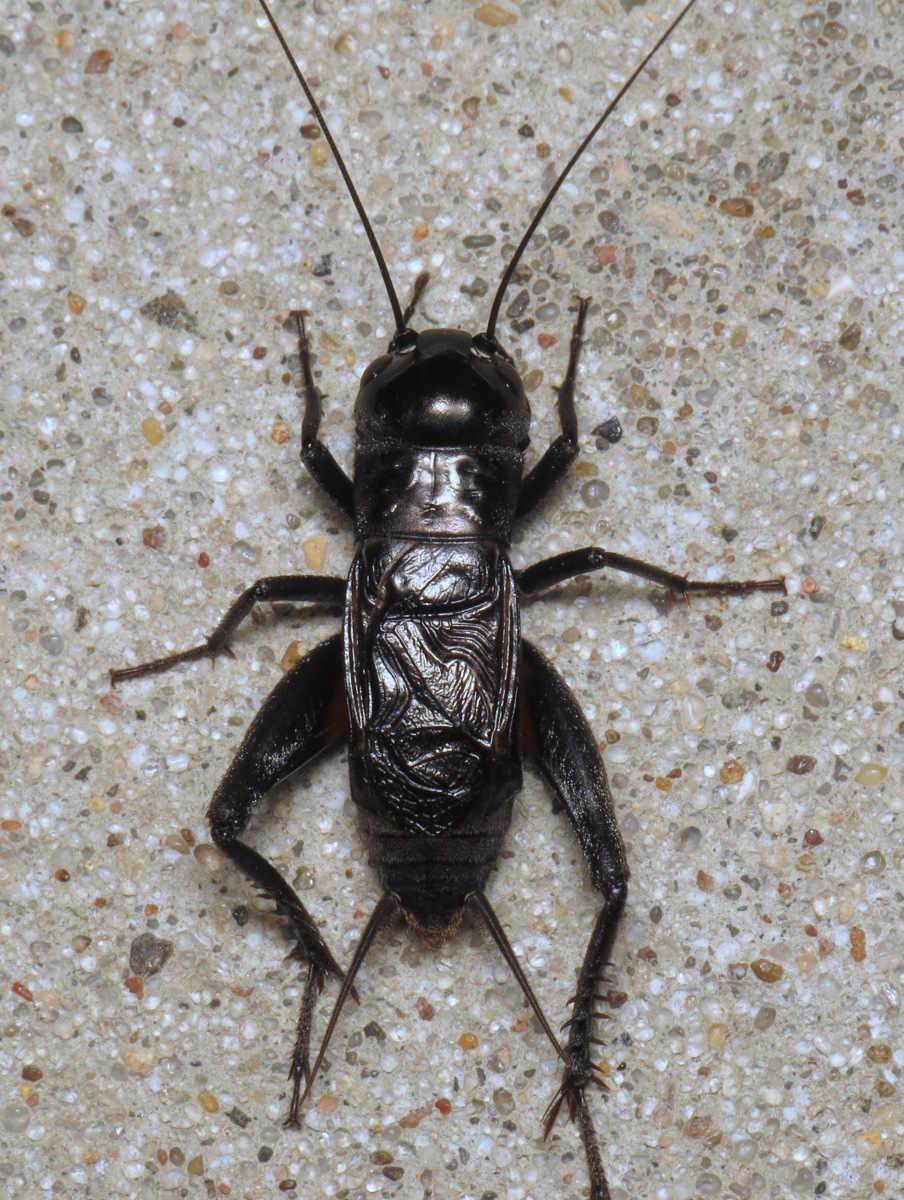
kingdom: Animalia
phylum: Arthropoda
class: Insecta
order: Orthoptera
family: Gryllidae
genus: Gryllus
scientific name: Gryllus pennsylvanicus
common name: Fall field cricket
